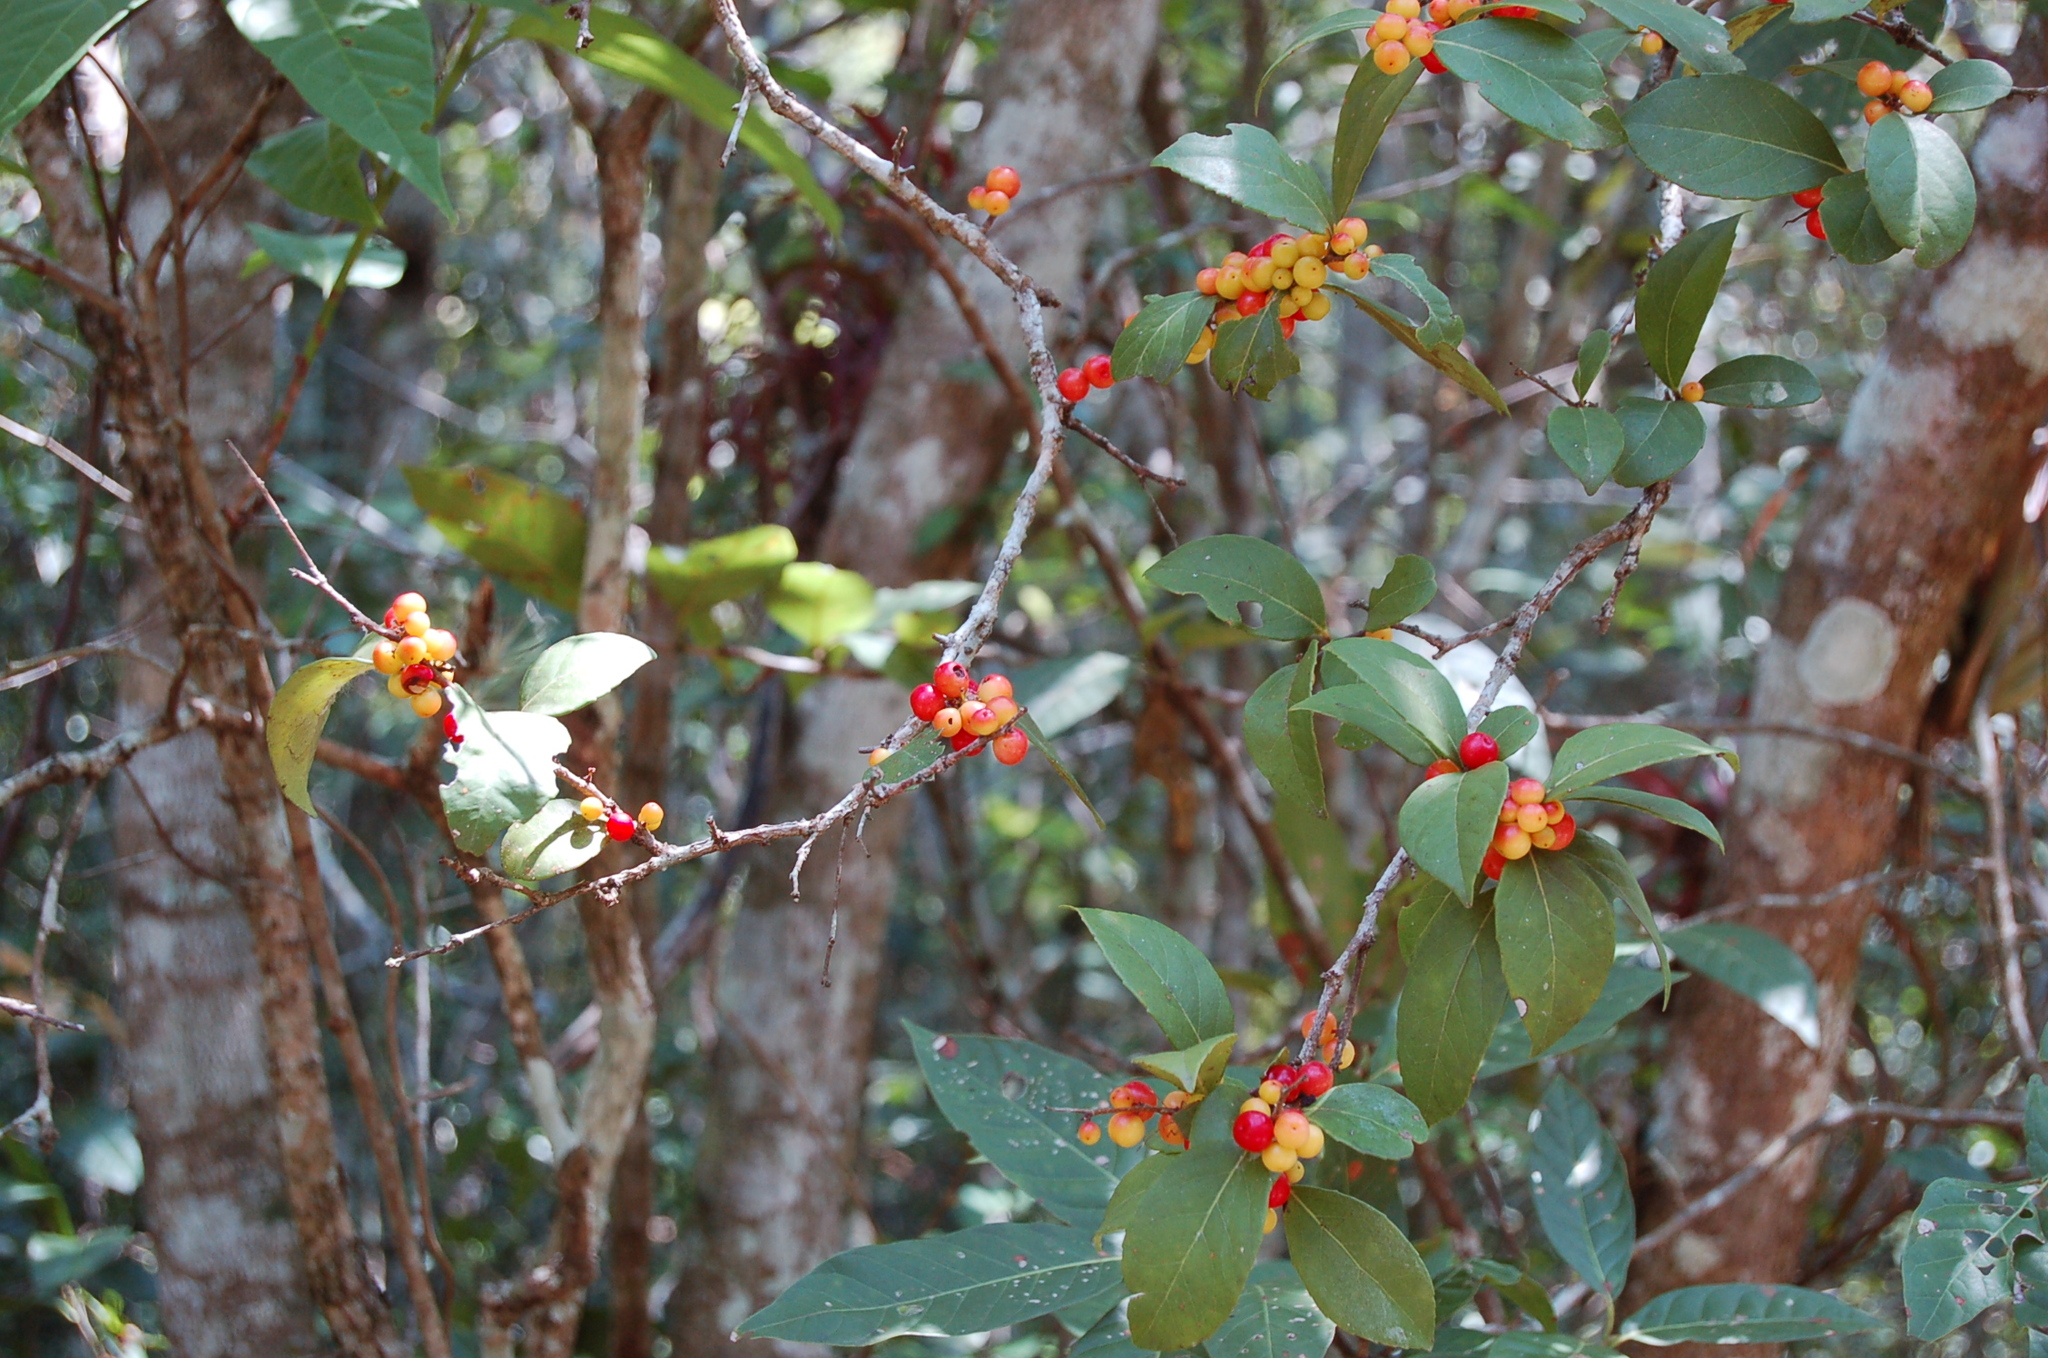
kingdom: Plantae
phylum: Tracheophyta
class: Magnoliopsida
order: Malpighiales
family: Salicaceae
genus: Xylosma
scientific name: Xylosma flexuosa
